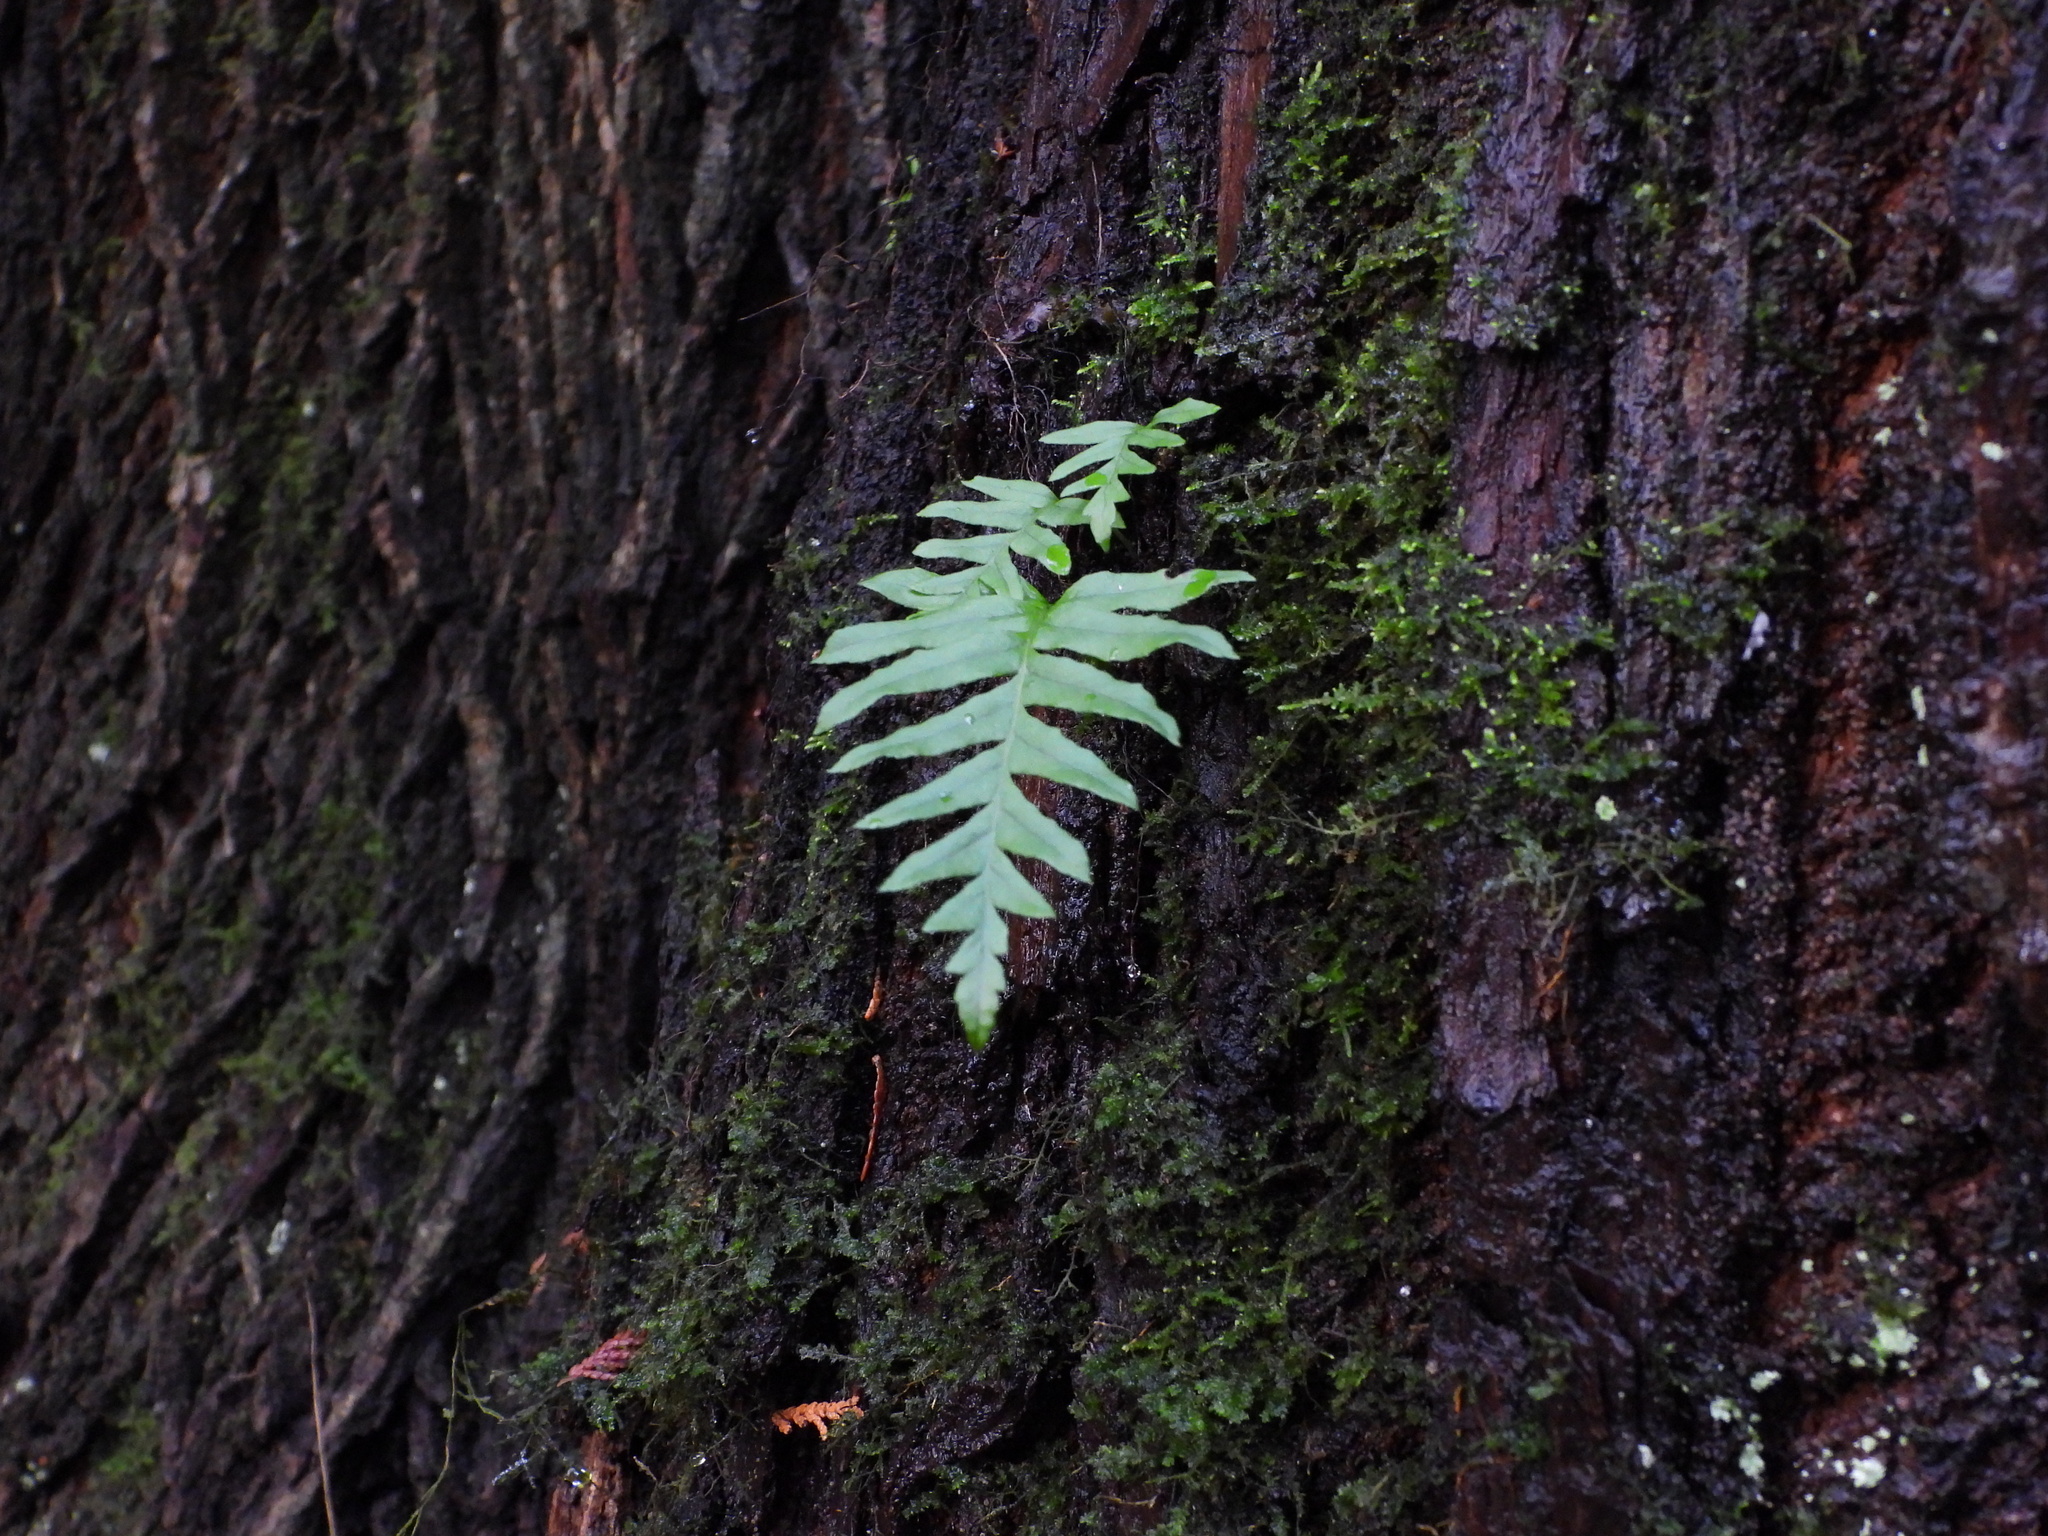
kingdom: Plantae
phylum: Tracheophyta
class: Polypodiopsida
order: Polypodiales
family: Polypodiaceae
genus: Polypodium
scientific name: Polypodium glycyrrhiza
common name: Licorice fern
